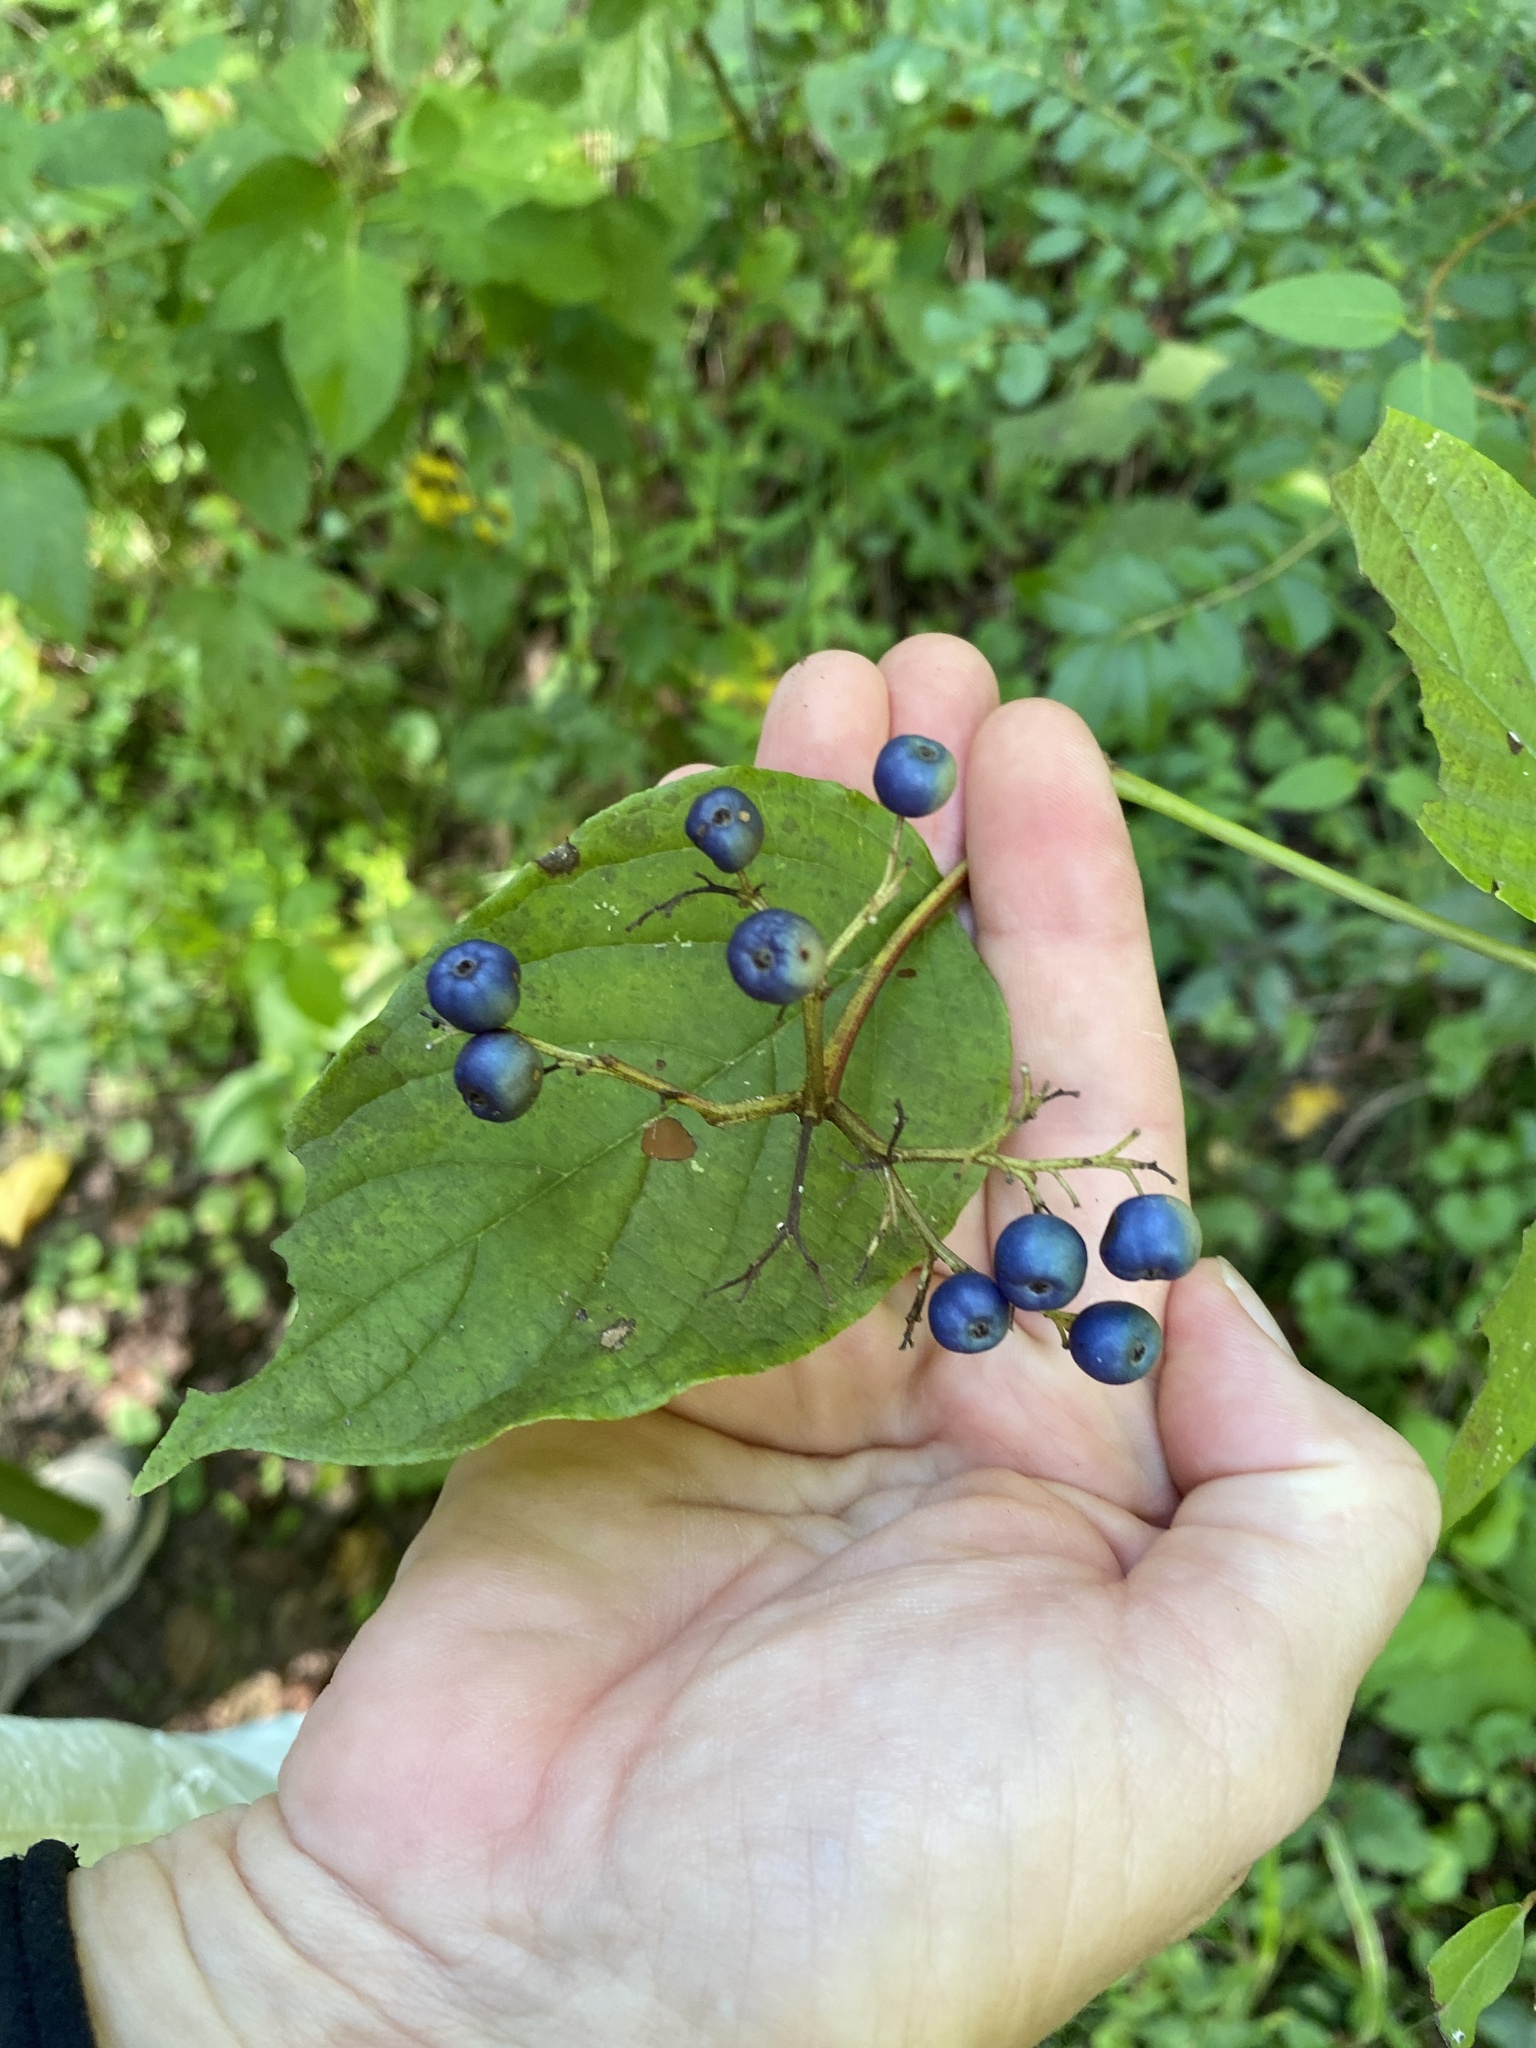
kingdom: Plantae
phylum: Tracheophyta
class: Magnoliopsida
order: Cornales
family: Cornaceae
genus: Cornus
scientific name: Cornus amomum
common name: Silky dogwood
